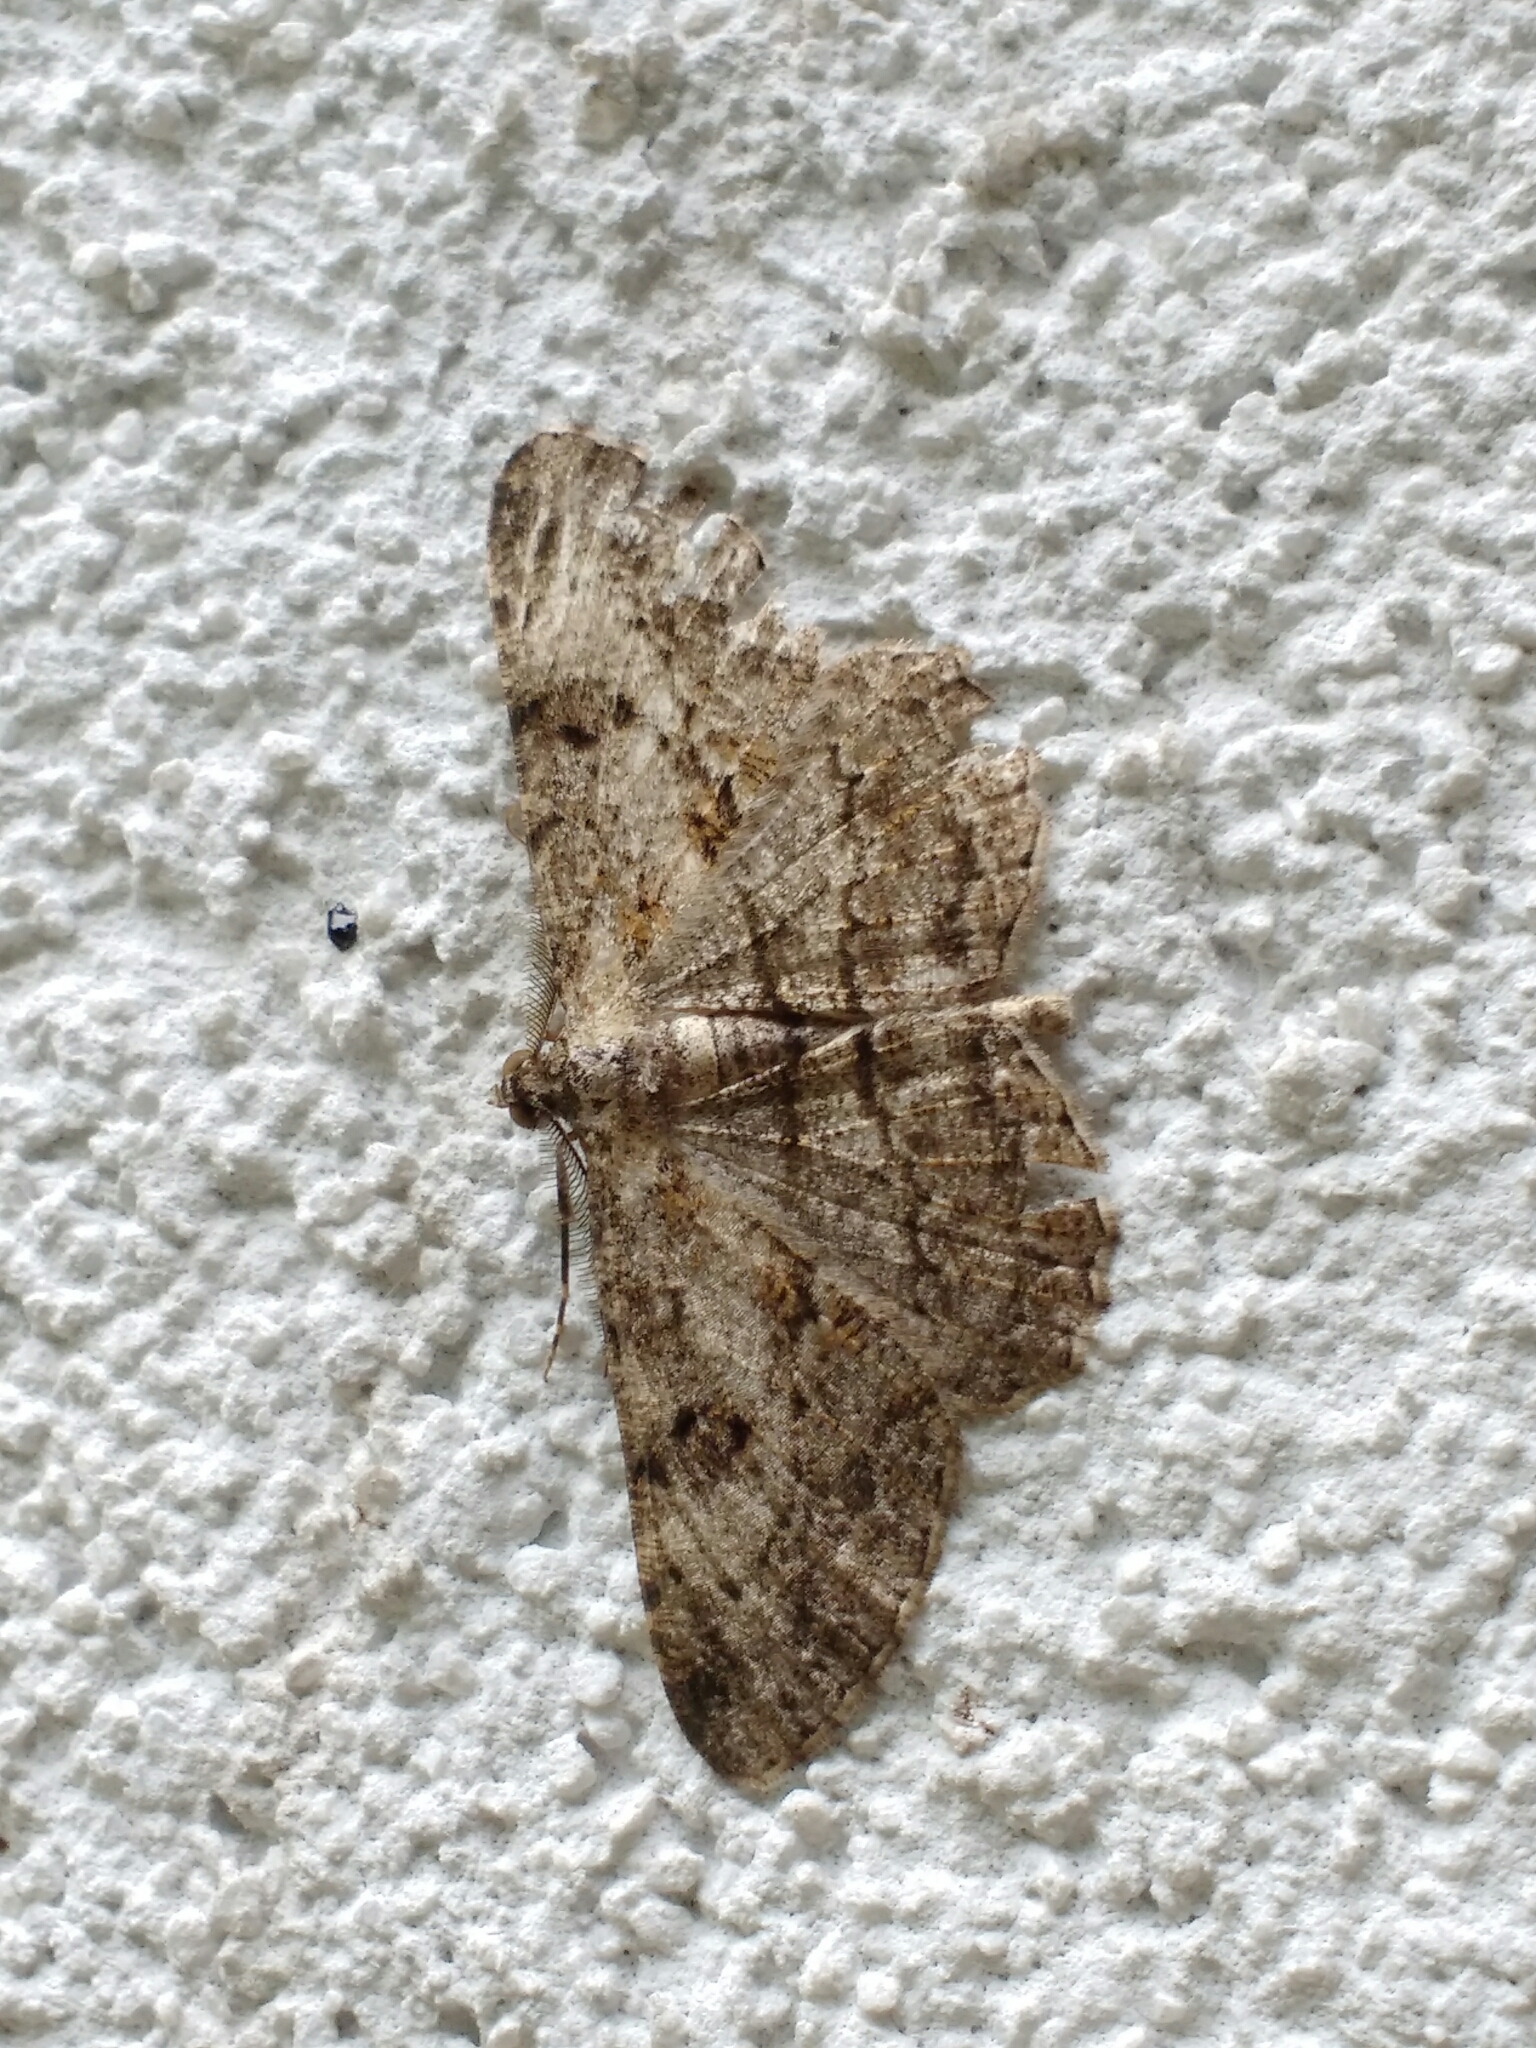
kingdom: Animalia
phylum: Arthropoda
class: Insecta
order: Lepidoptera
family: Geometridae
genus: Peribatodes
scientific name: Peribatodes rhomboidaria
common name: Willow beauty
